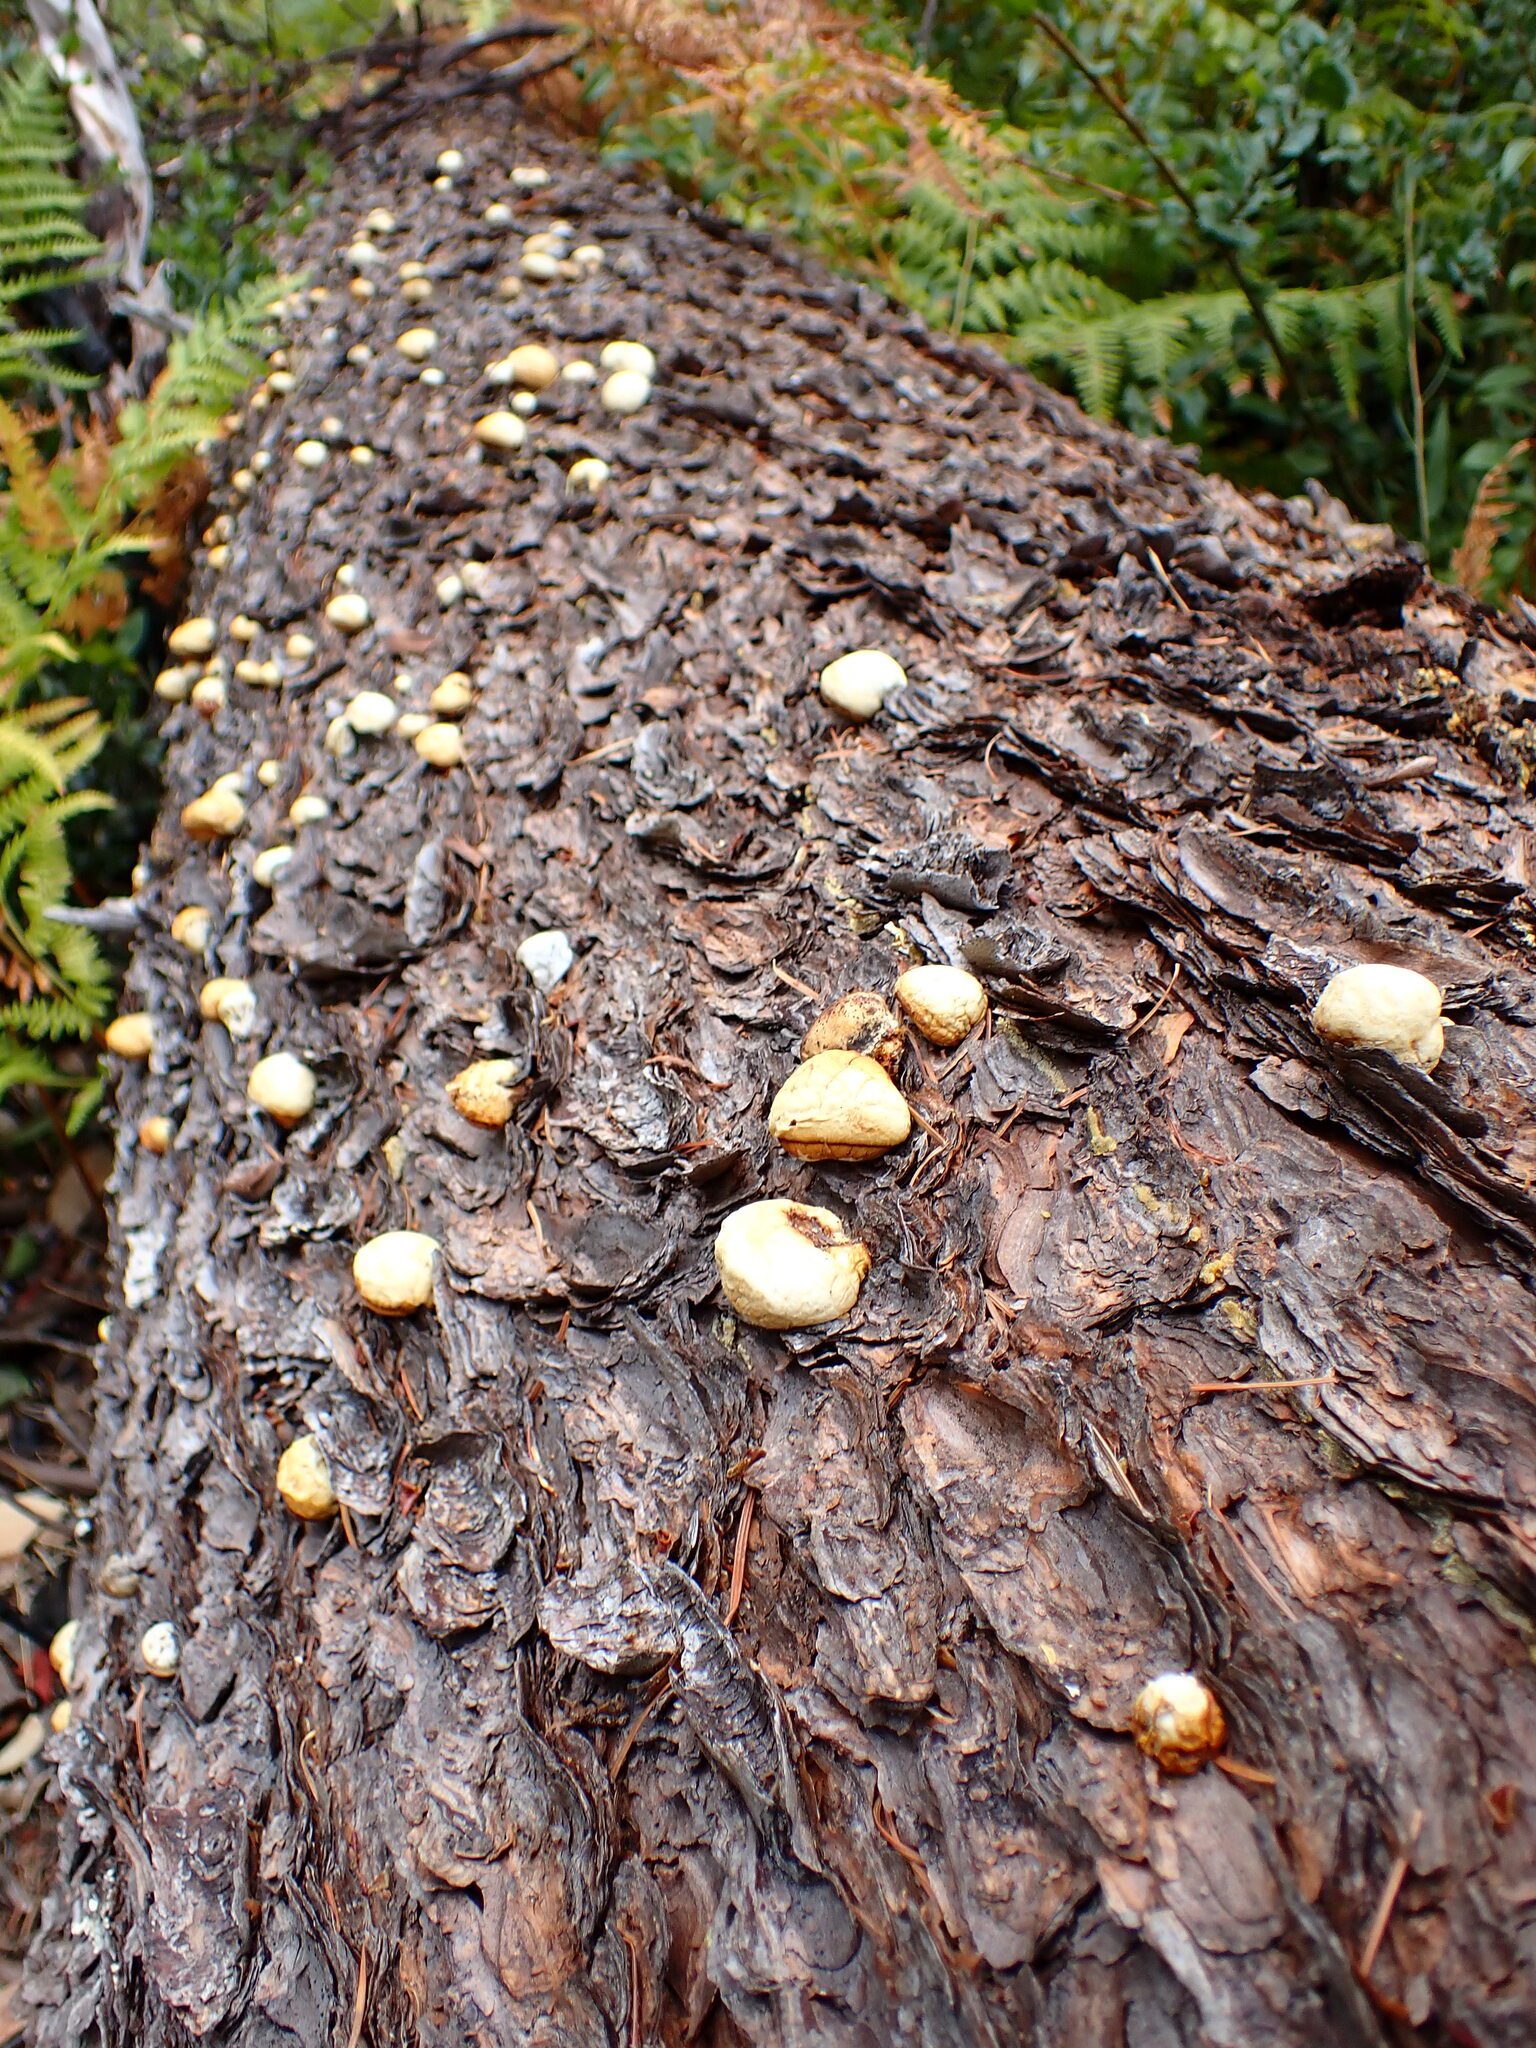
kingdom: Fungi
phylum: Basidiomycota
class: Agaricomycetes
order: Polyporales
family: Polyporaceae
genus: Cryptoporus
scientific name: Cryptoporus volvatus
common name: Veiled polypore
